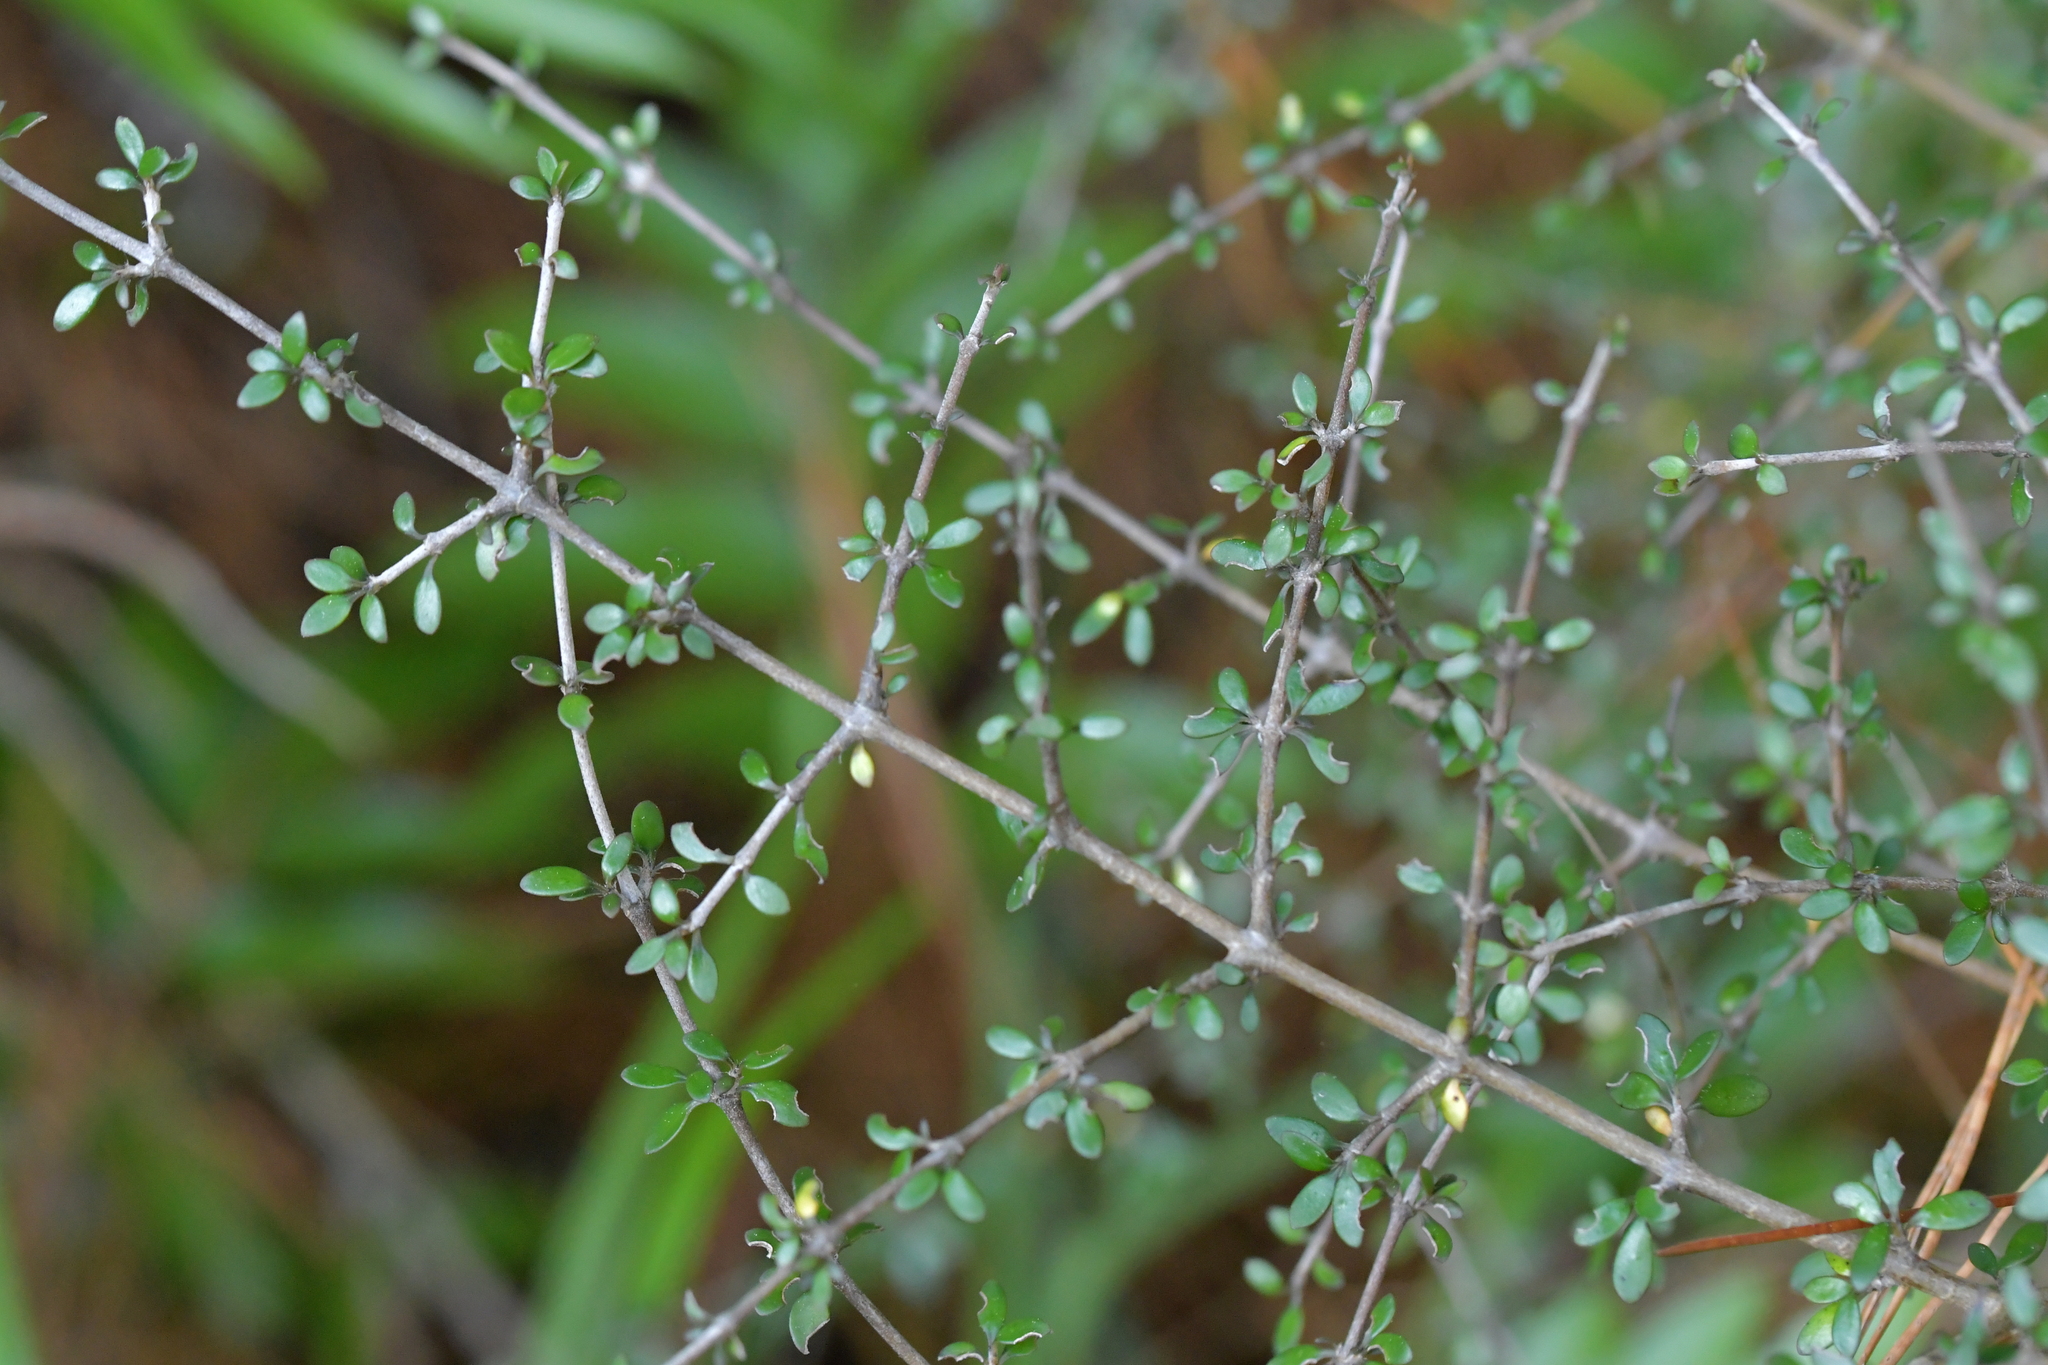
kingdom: Plantae
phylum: Tracheophyta
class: Magnoliopsida
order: Gentianales
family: Rubiaceae
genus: Coprosma
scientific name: Coprosma dumosa
